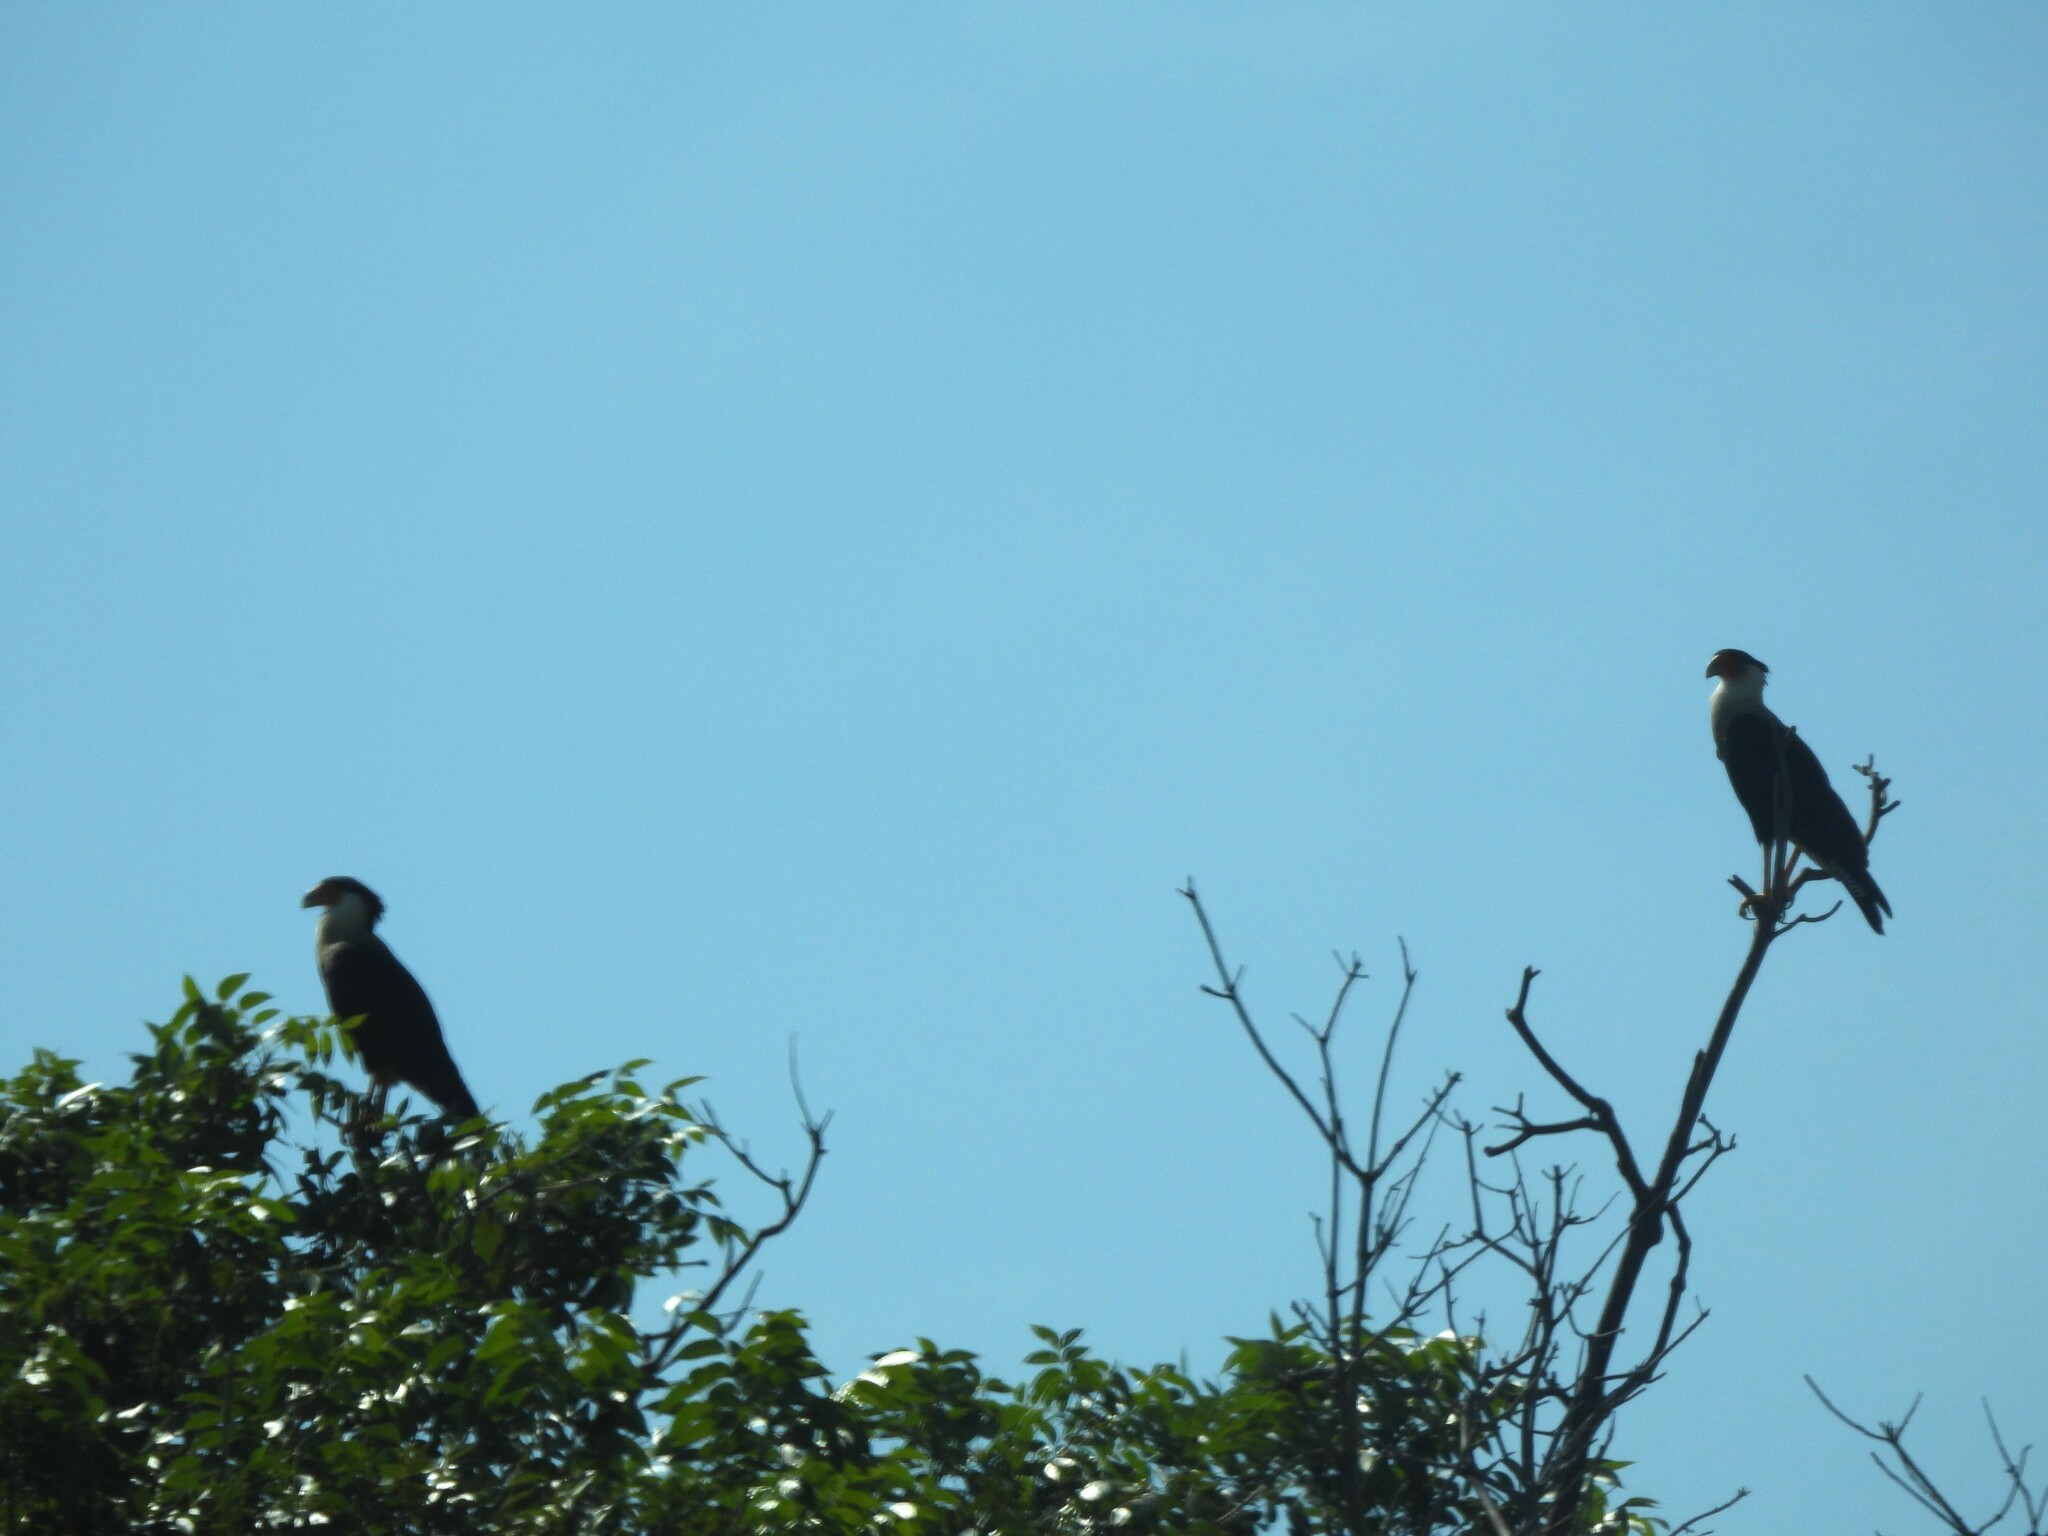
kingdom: Animalia
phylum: Chordata
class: Aves
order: Falconiformes
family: Falconidae
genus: Caracara
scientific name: Caracara plancus
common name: Southern caracara
